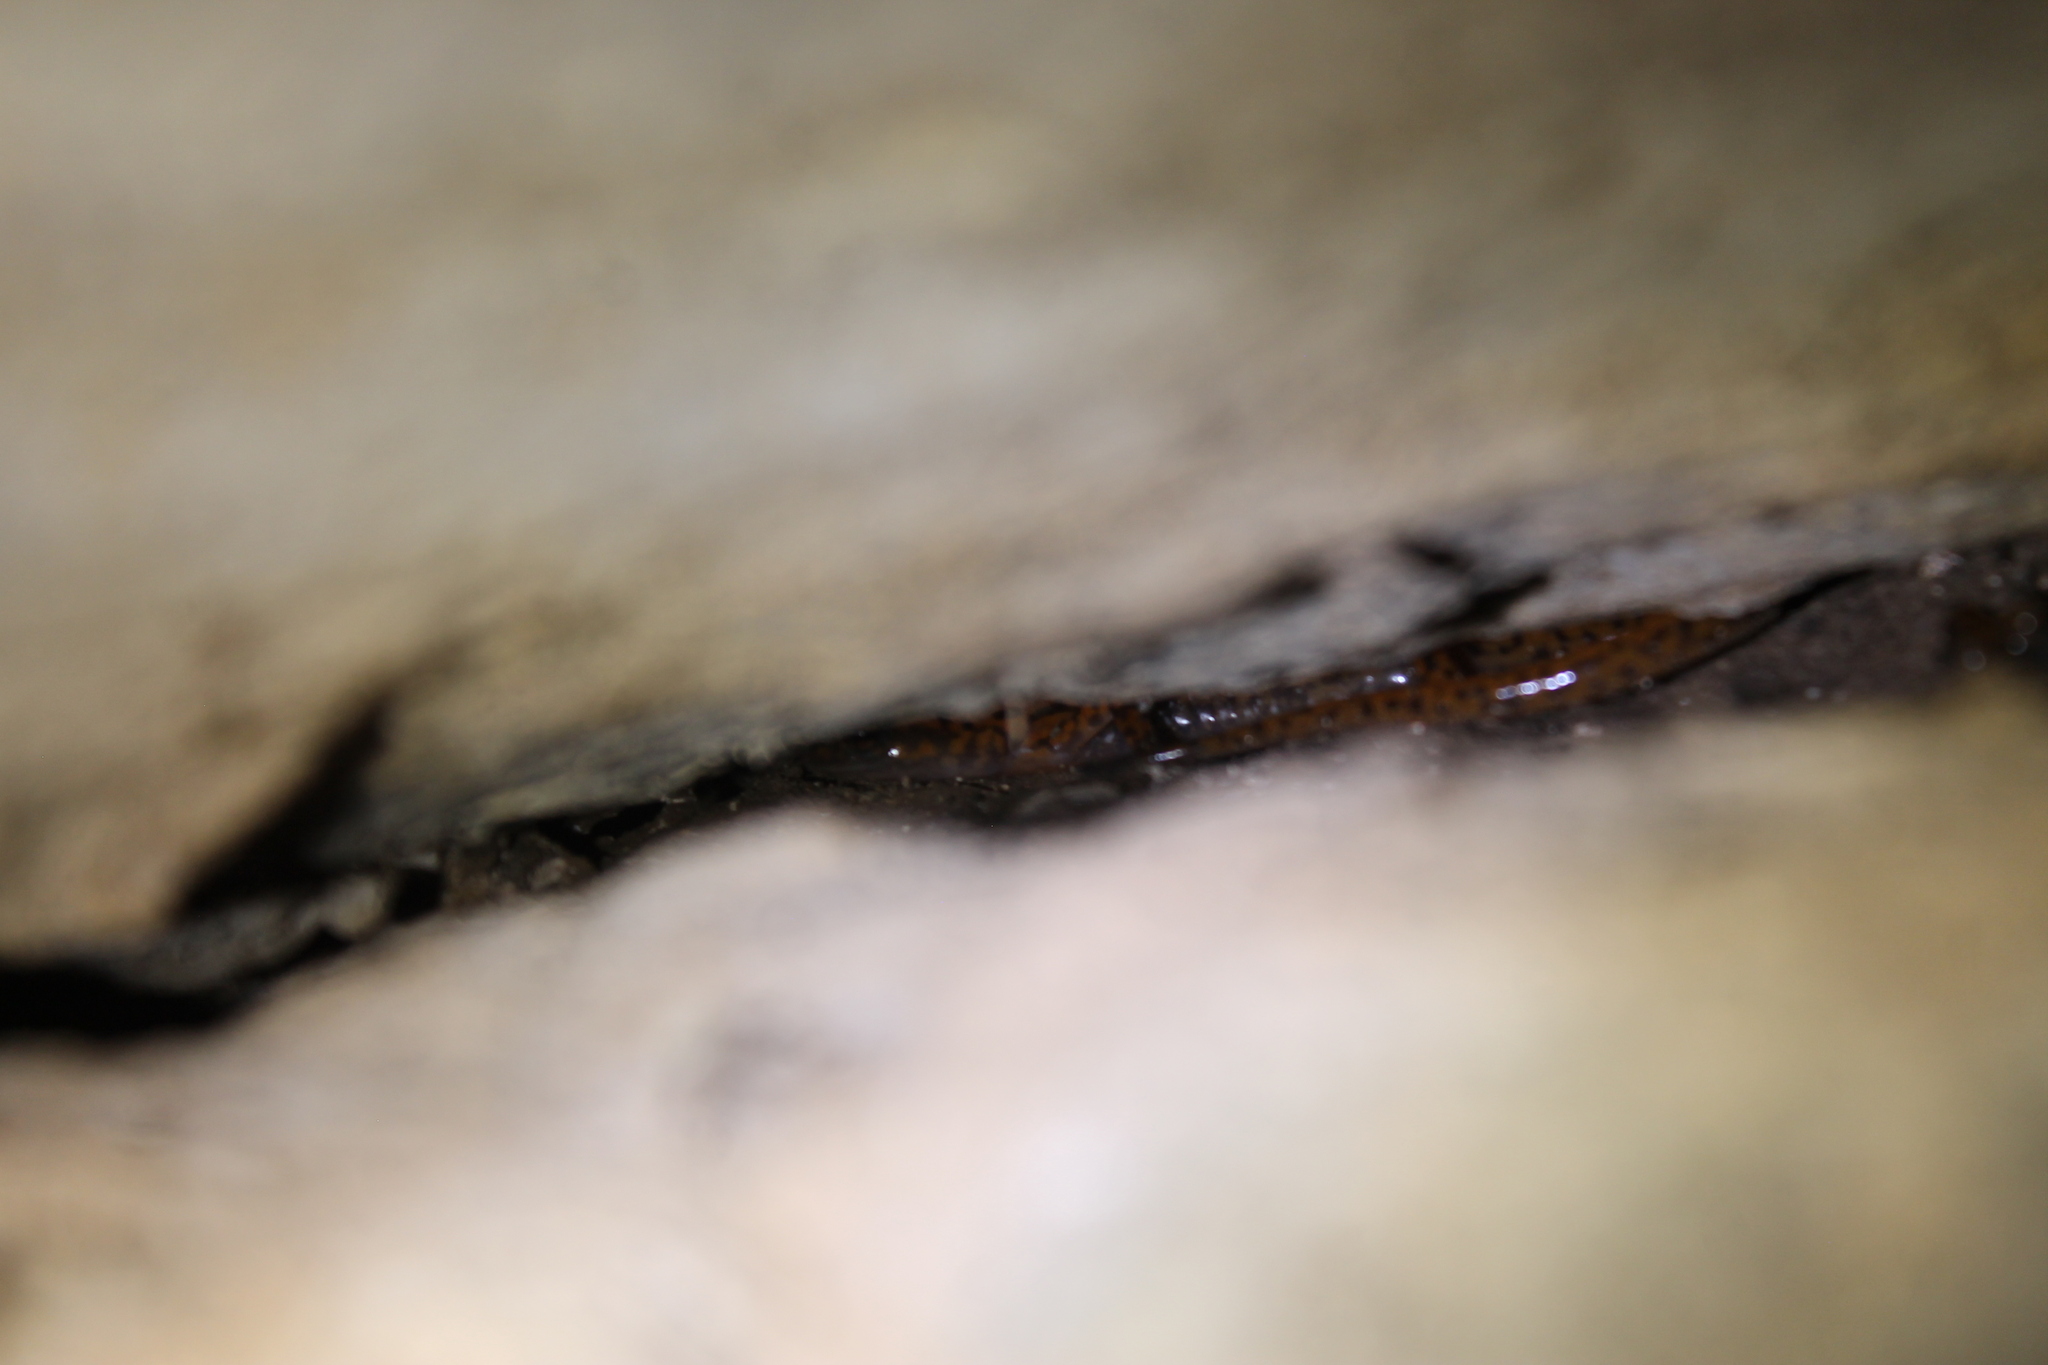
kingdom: Animalia
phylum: Chordata
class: Amphibia
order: Caudata
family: Plethodontidae
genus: Eurycea
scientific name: Eurycea lucifuga
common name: Cave salamander
